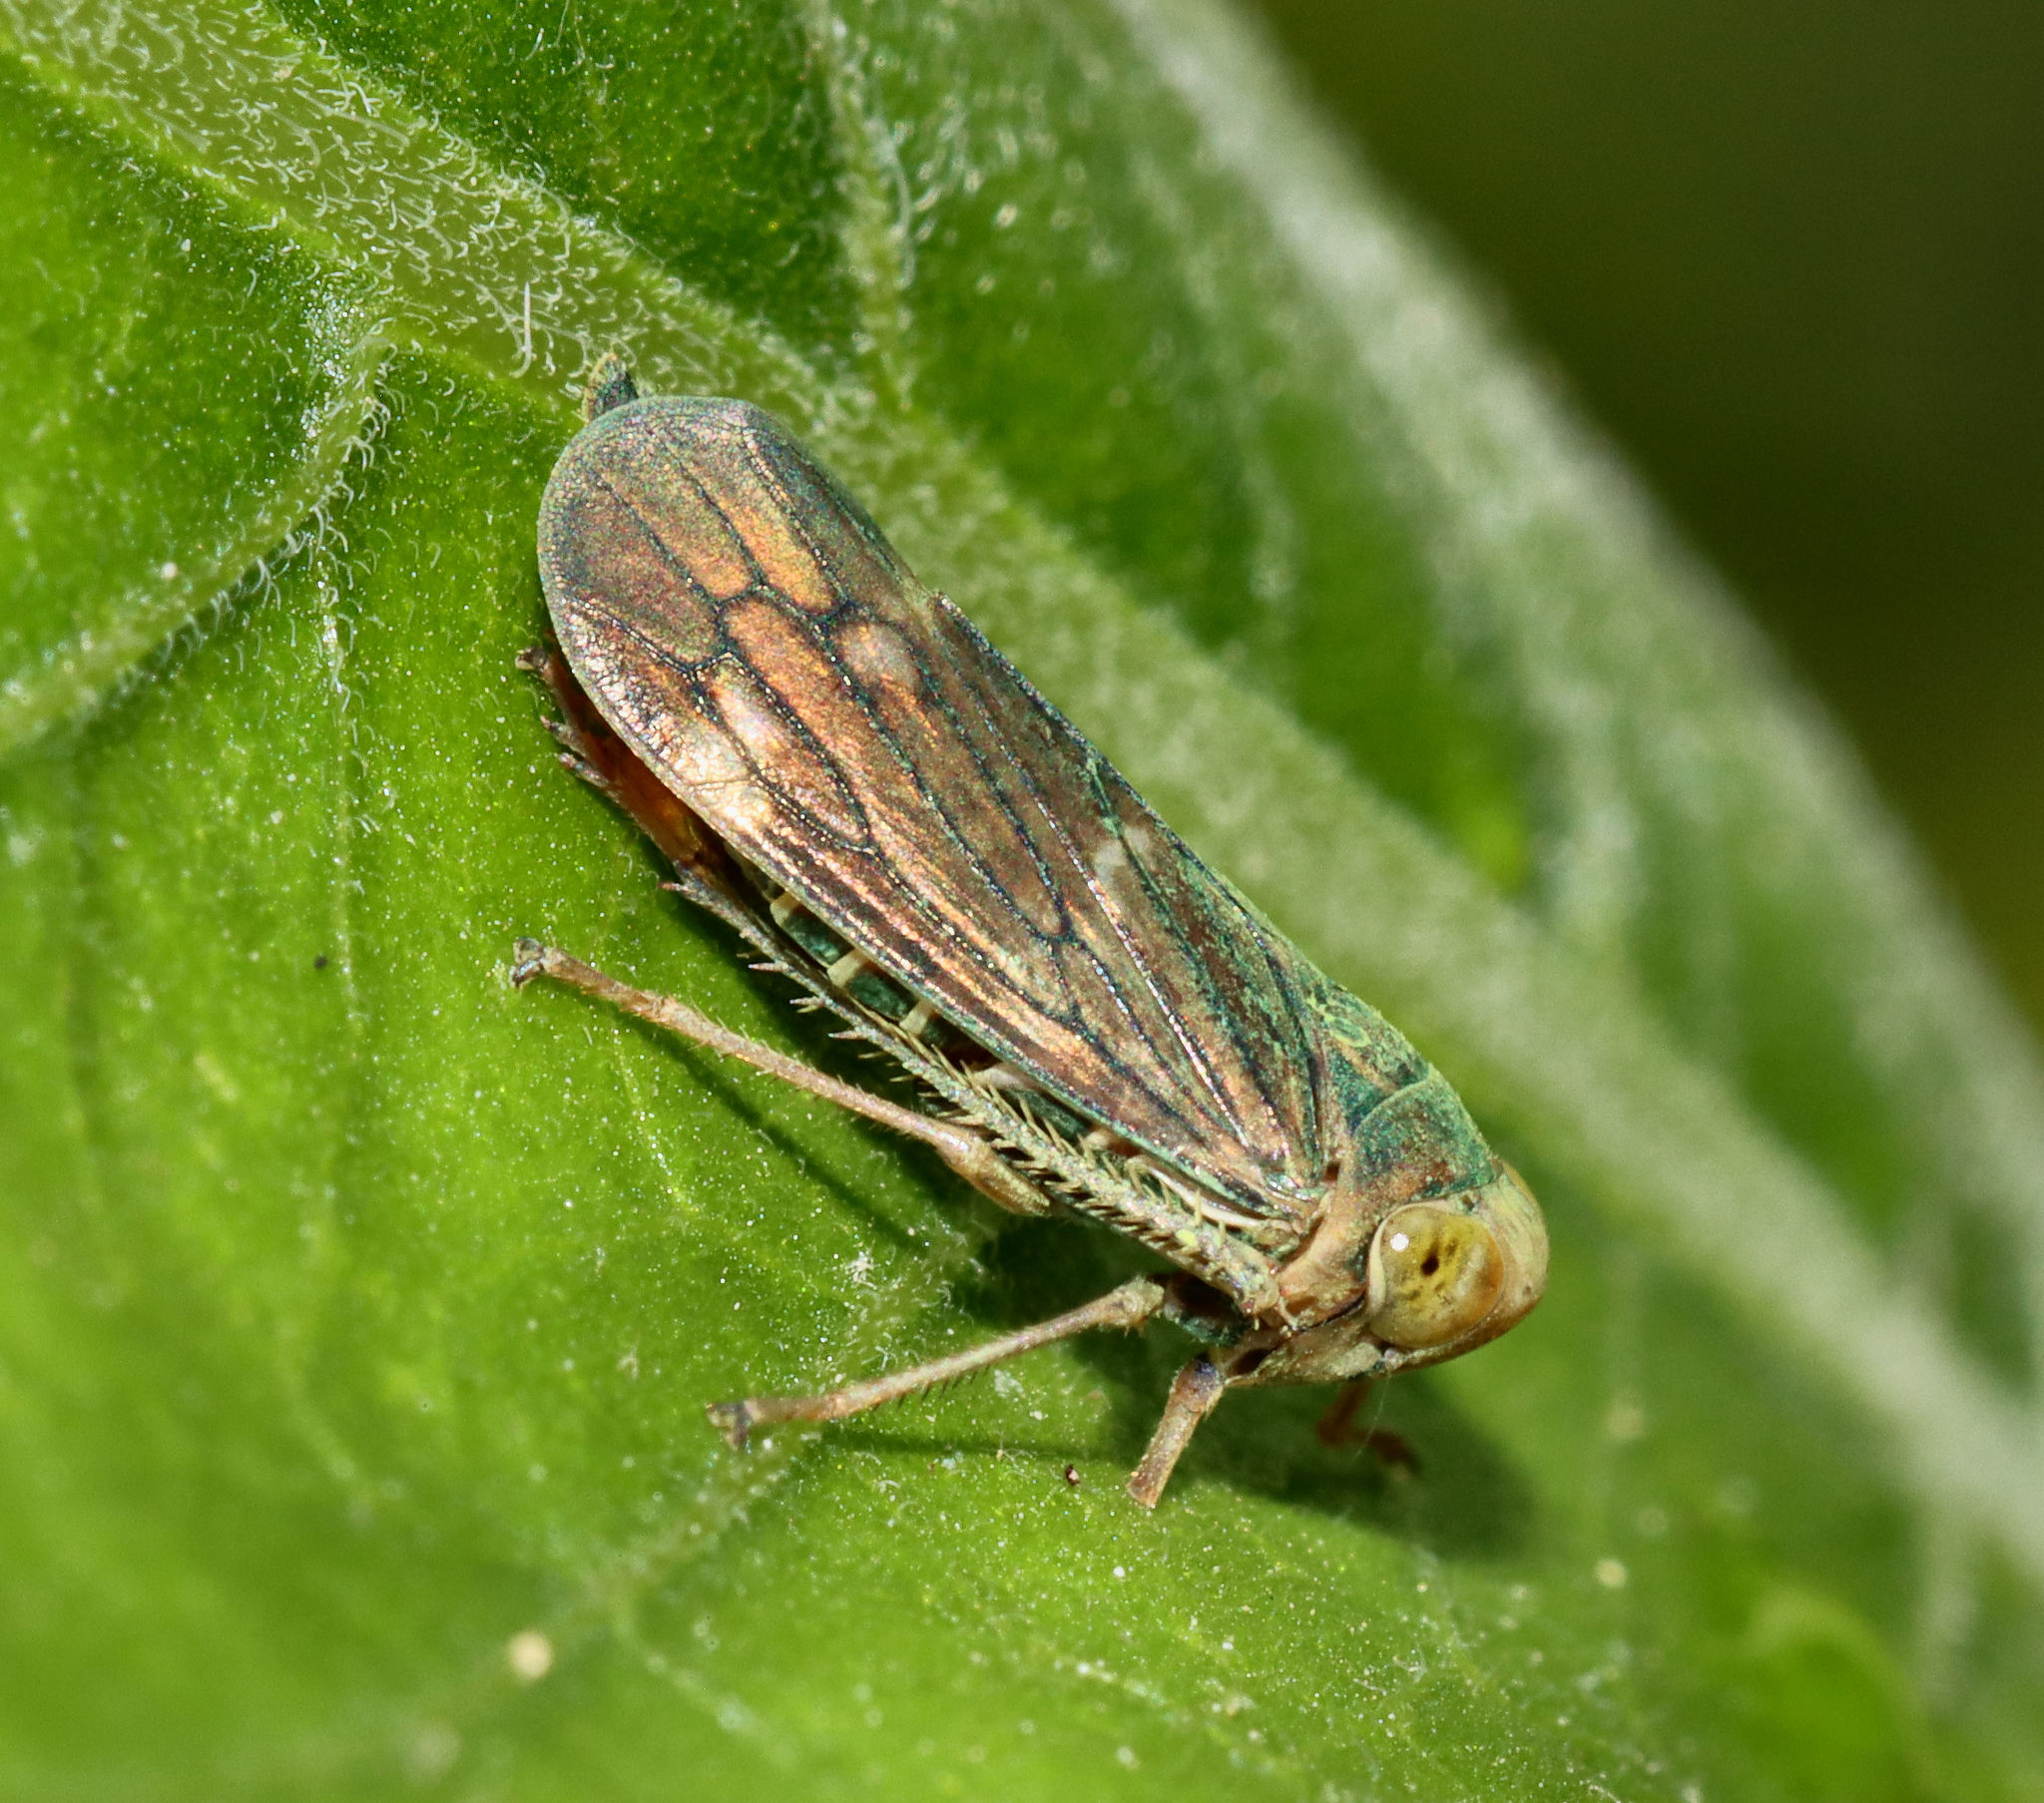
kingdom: Animalia
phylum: Arthropoda
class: Insecta
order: Hemiptera
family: Cicadellidae
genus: Jikradia
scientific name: Jikradia olitoria
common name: Coppery leafhopper
